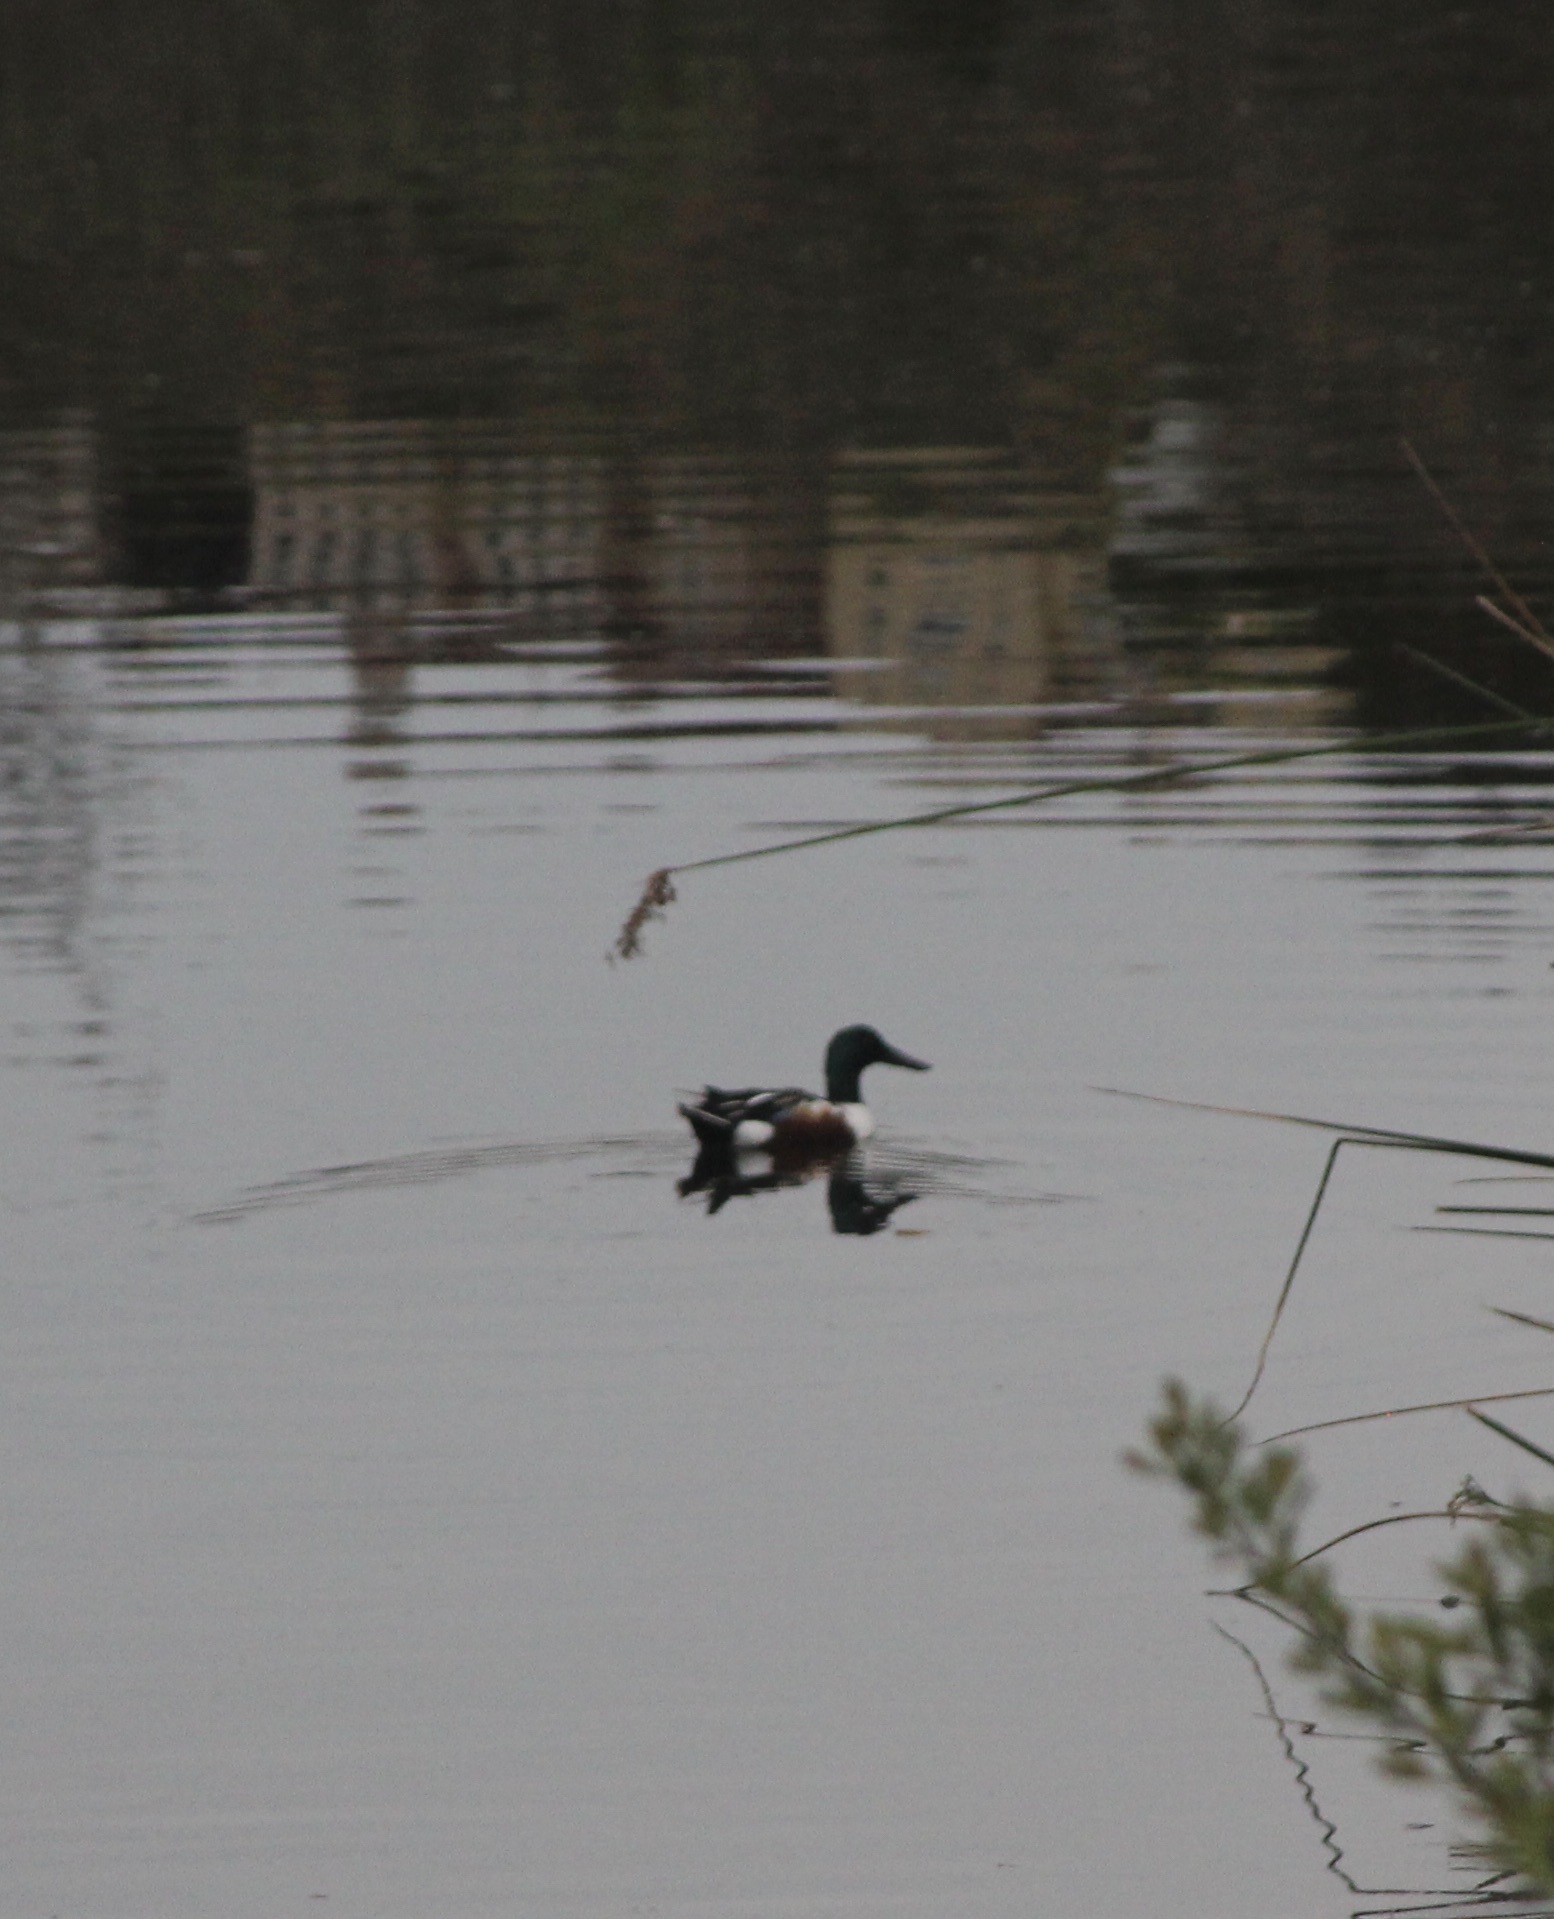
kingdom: Animalia
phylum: Chordata
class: Aves
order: Anseriformes
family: Anatidae
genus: Spatula
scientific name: Spatula clypeata
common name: Northern shoveler
